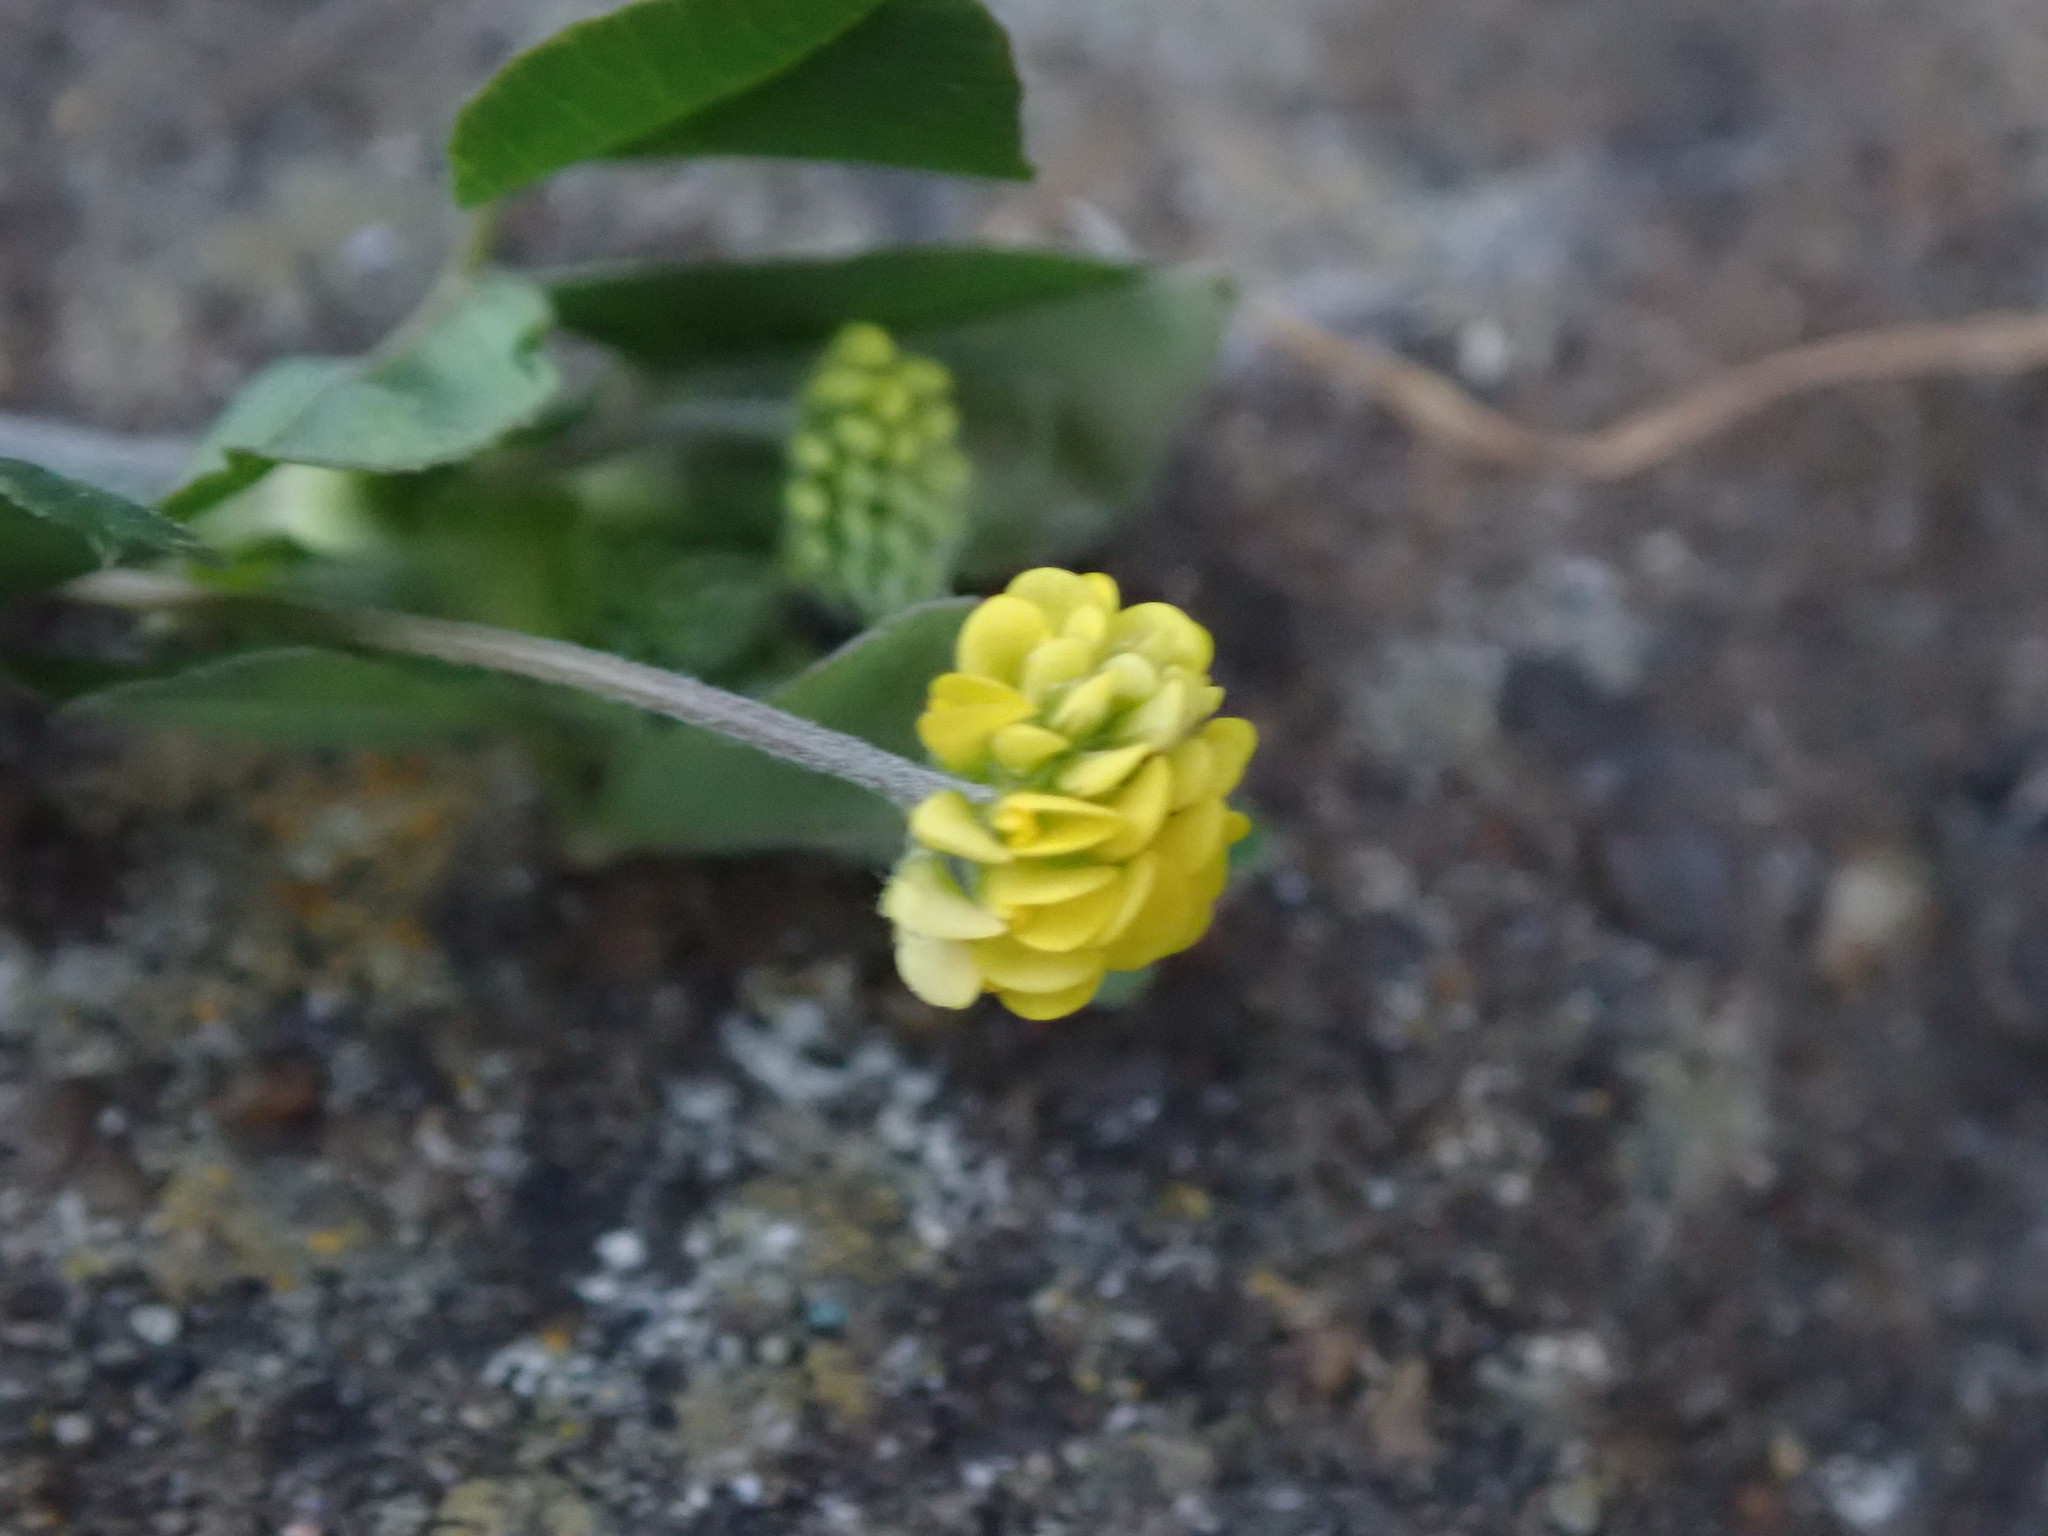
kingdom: Plantae
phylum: Tracheophyta
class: Magnoliopsida
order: Fabales
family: Fabaceae
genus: Medicago
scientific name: Medicago lupulina
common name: Black medick
